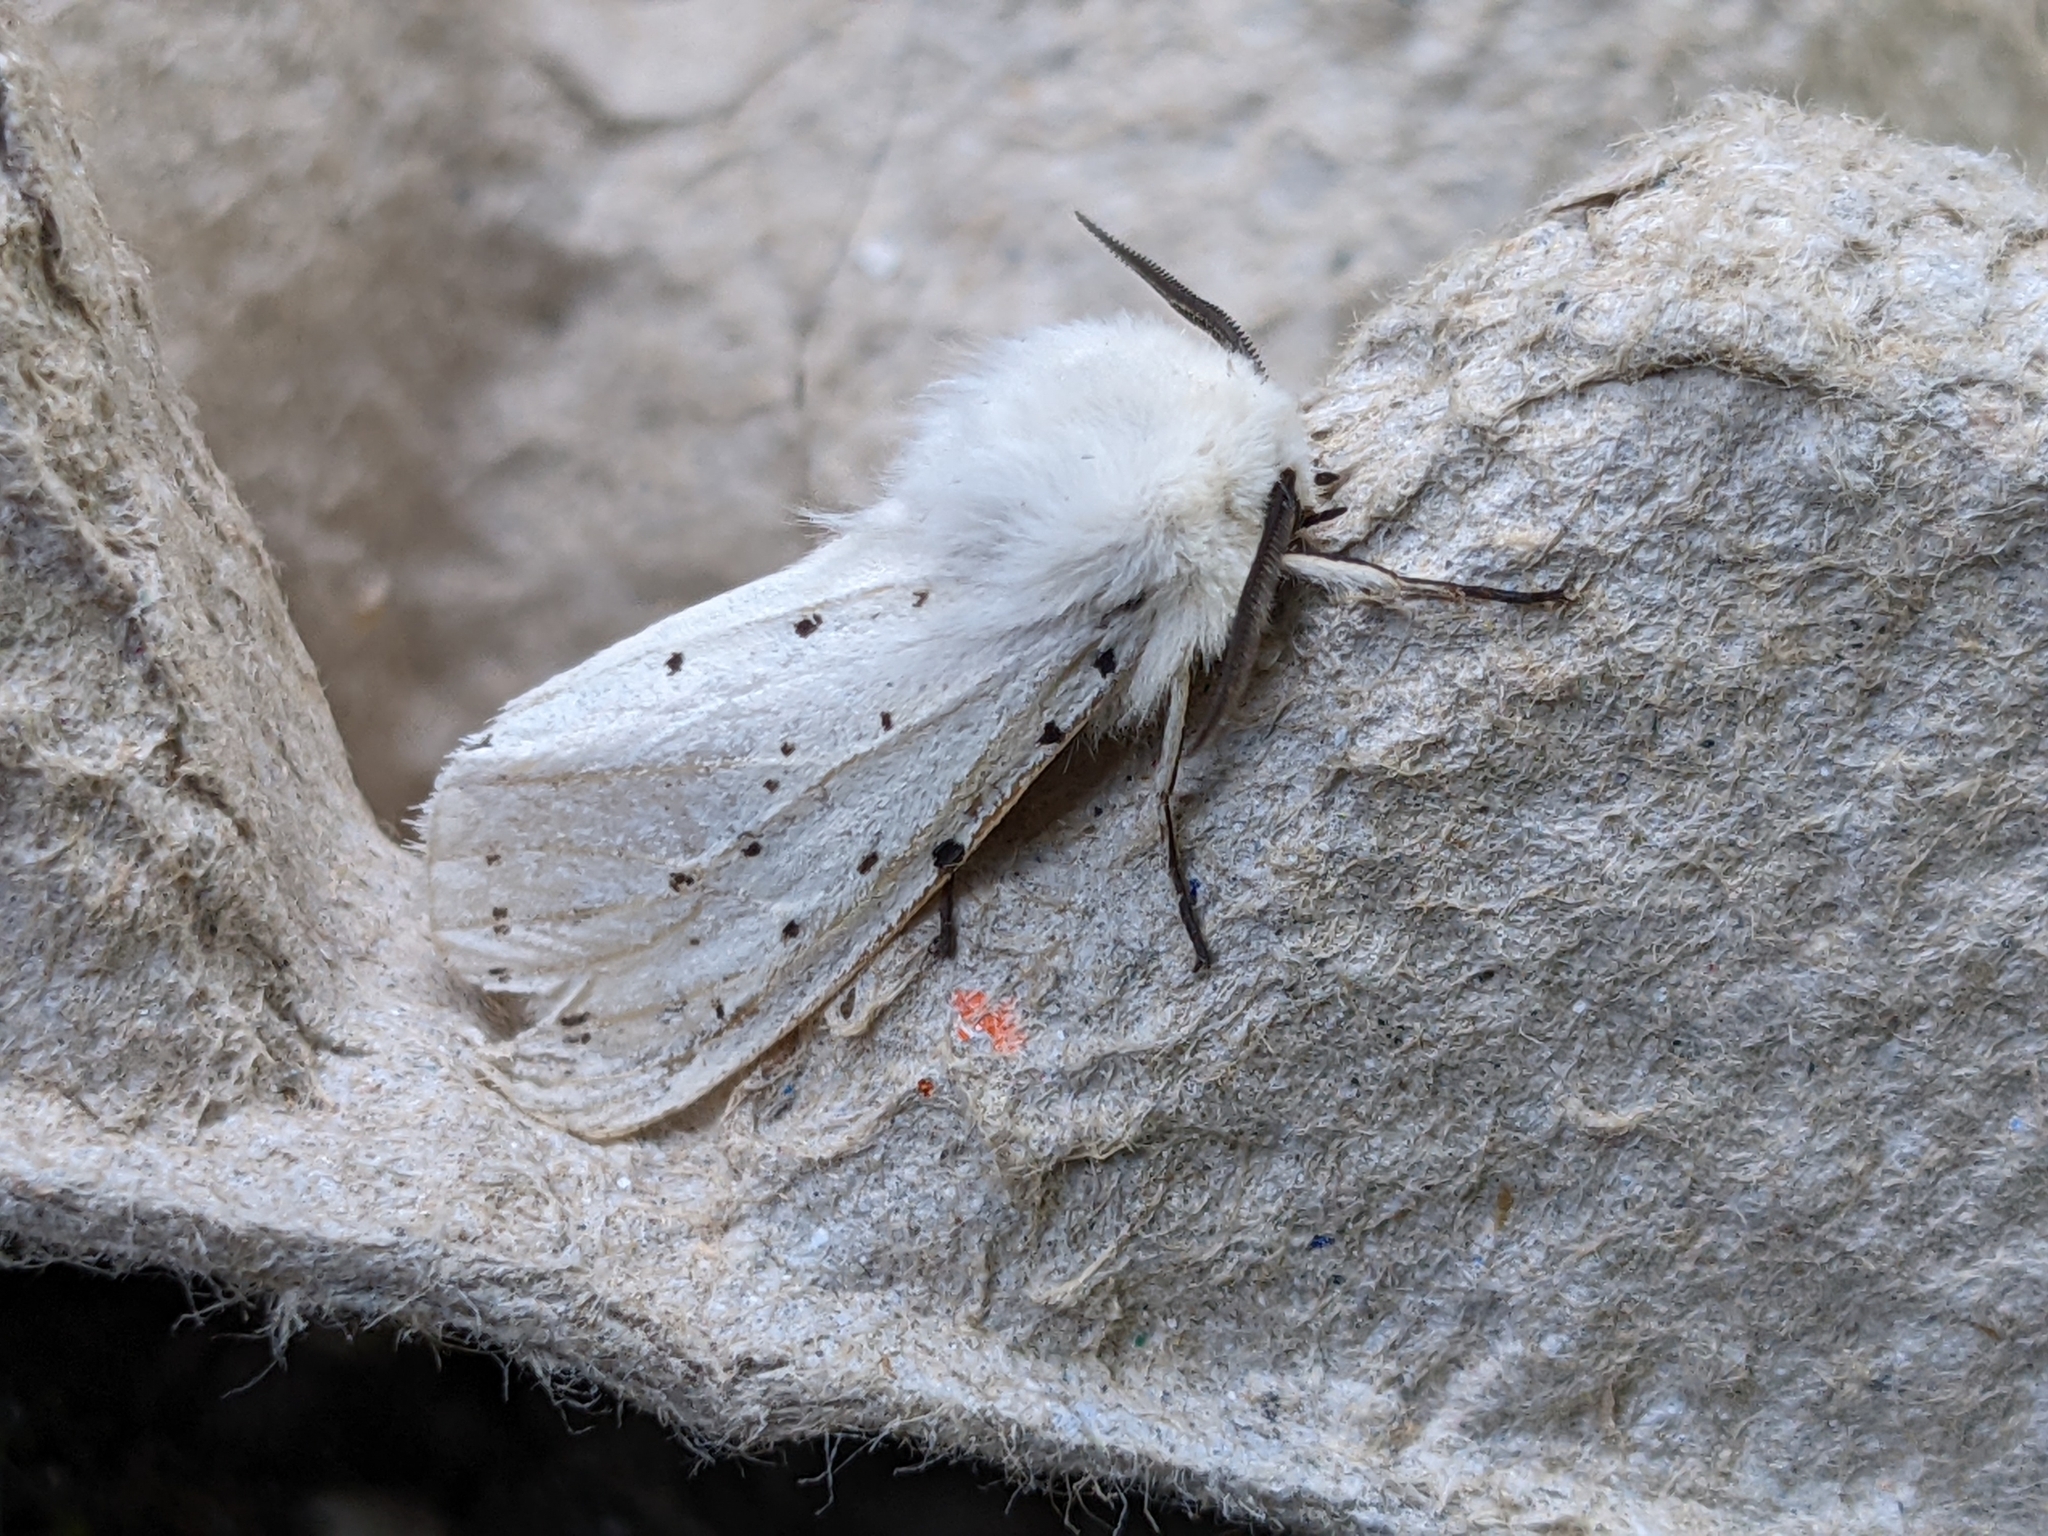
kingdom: Animalia
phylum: Arthropoda
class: Insecta
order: Lepidoptera
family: Erebidae
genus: Spilosoma
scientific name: Spilosoma lubricipeda
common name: White ermine
